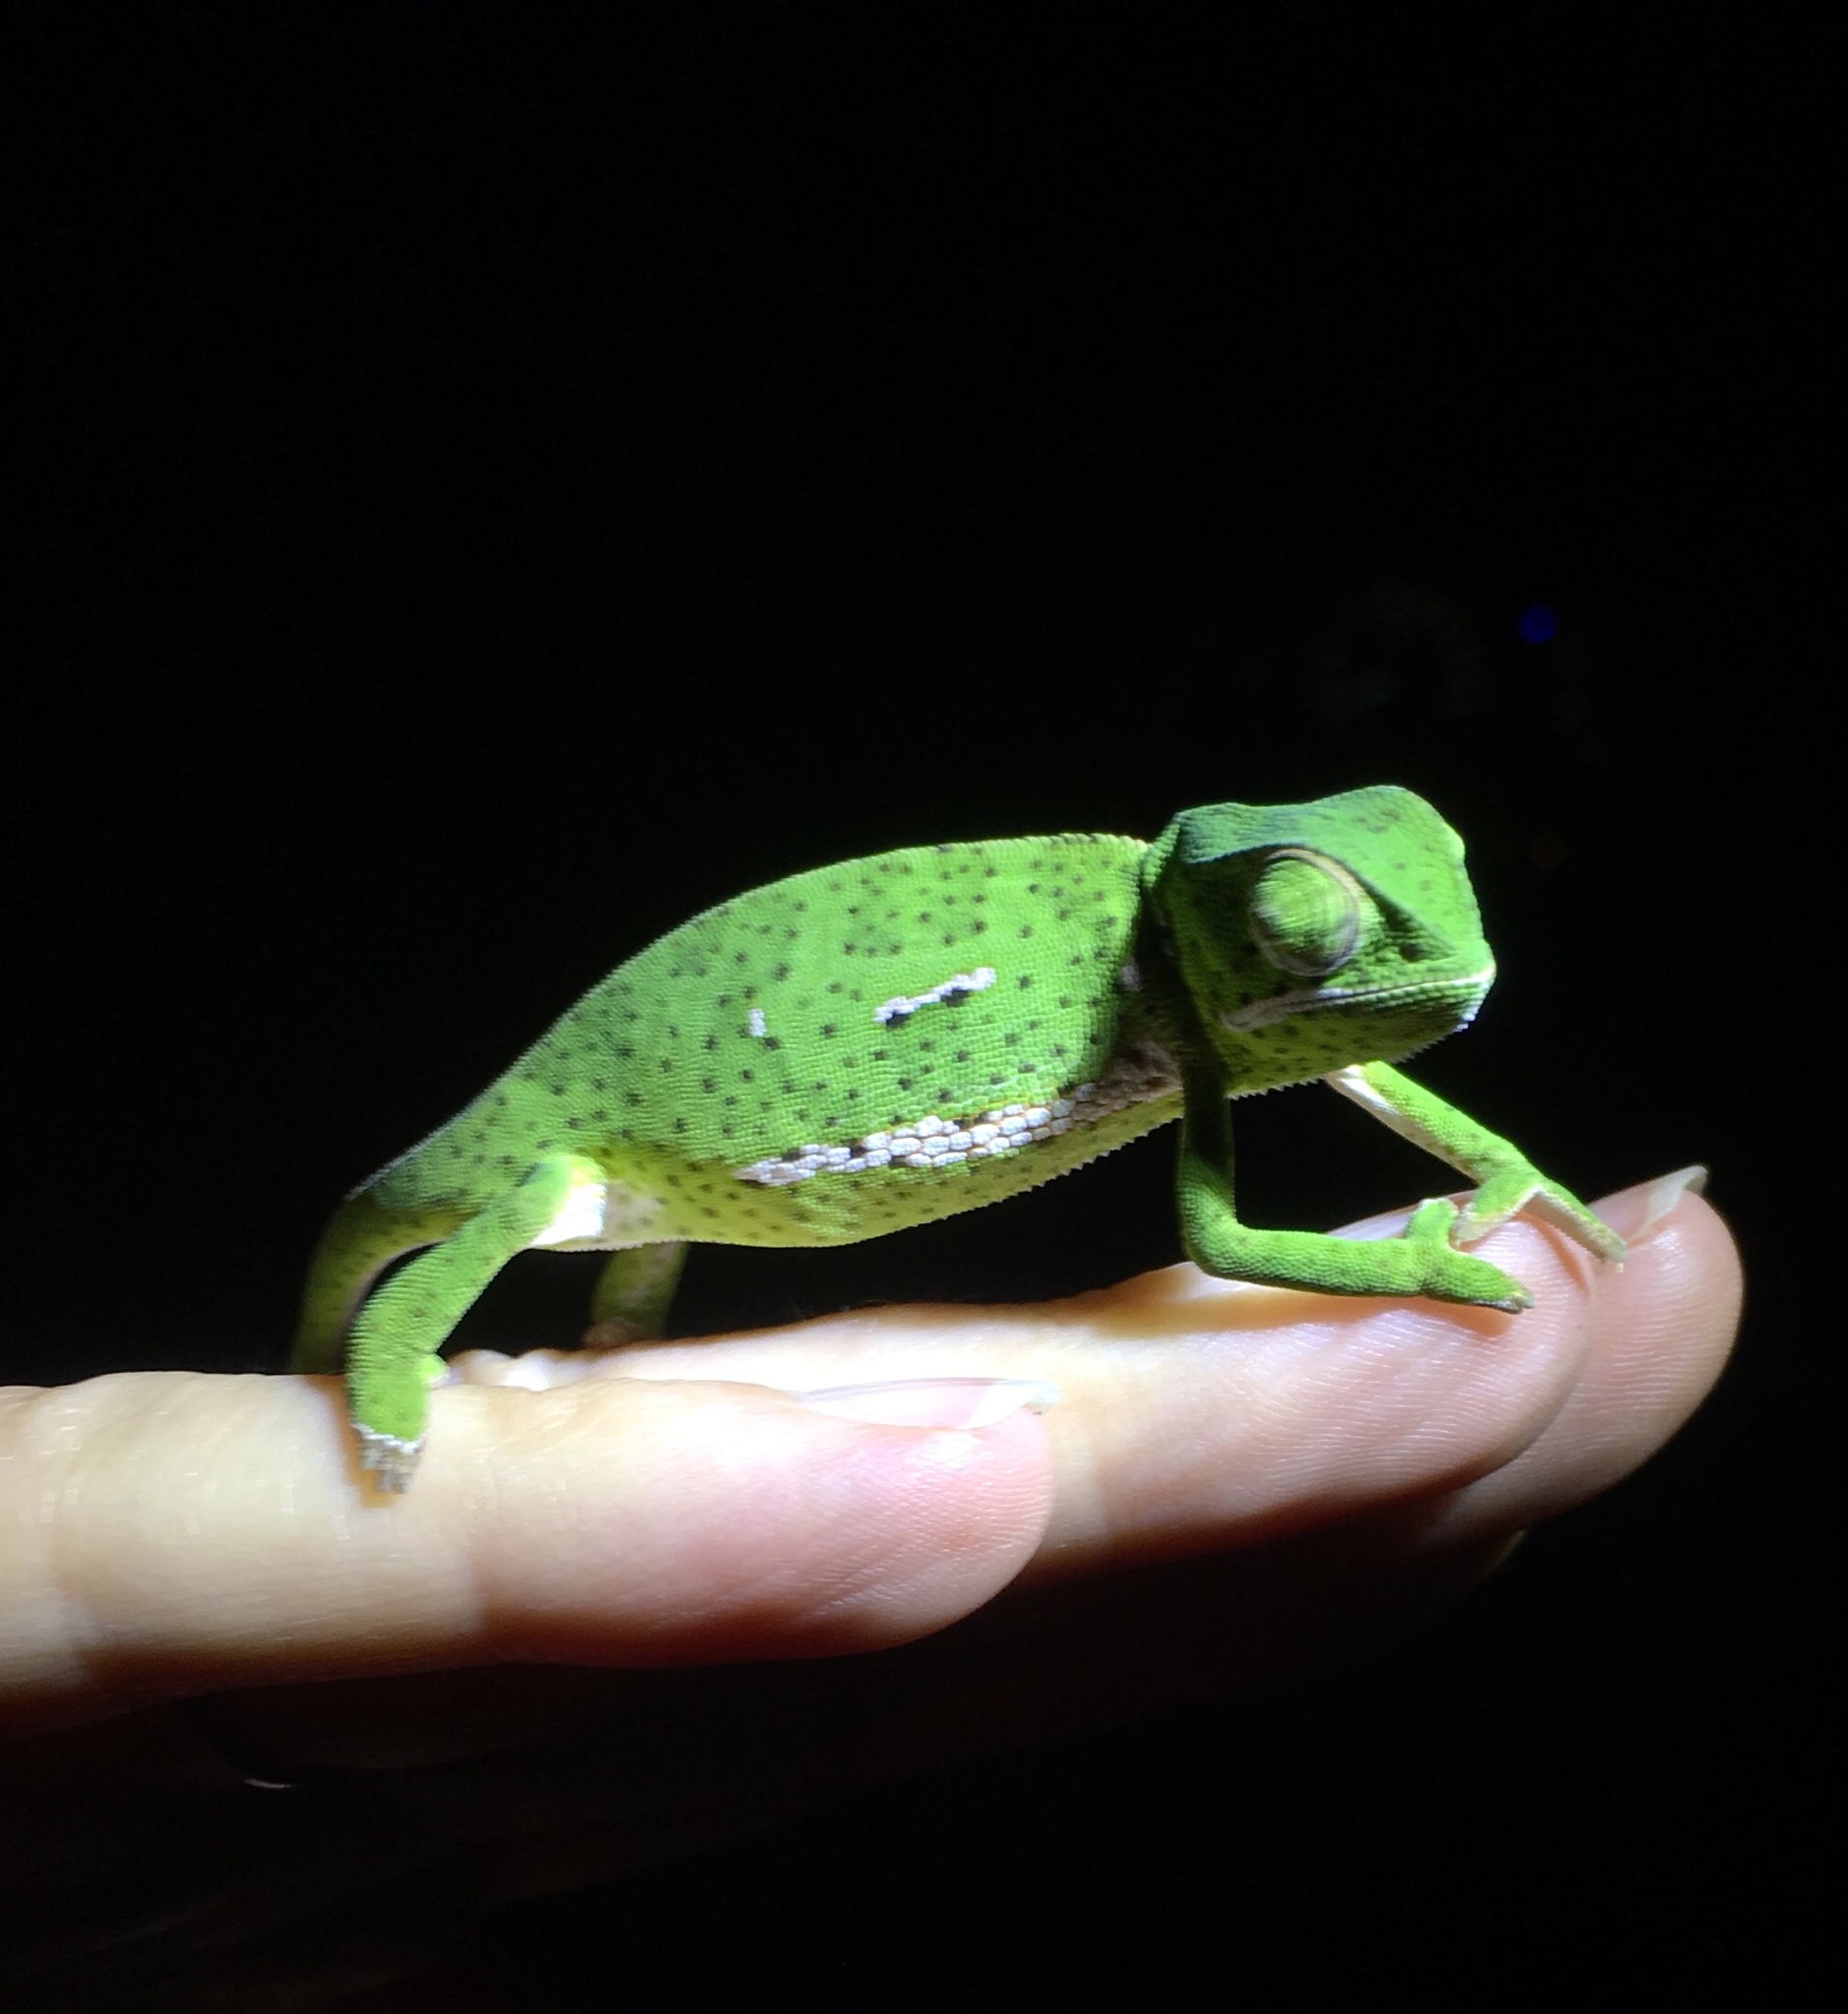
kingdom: Animalia
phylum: Chordata
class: Squamata
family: Chamaeleonidae
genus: Chamaeleo
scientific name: Chamaeleo dilepis
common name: Flapneck chameleon
